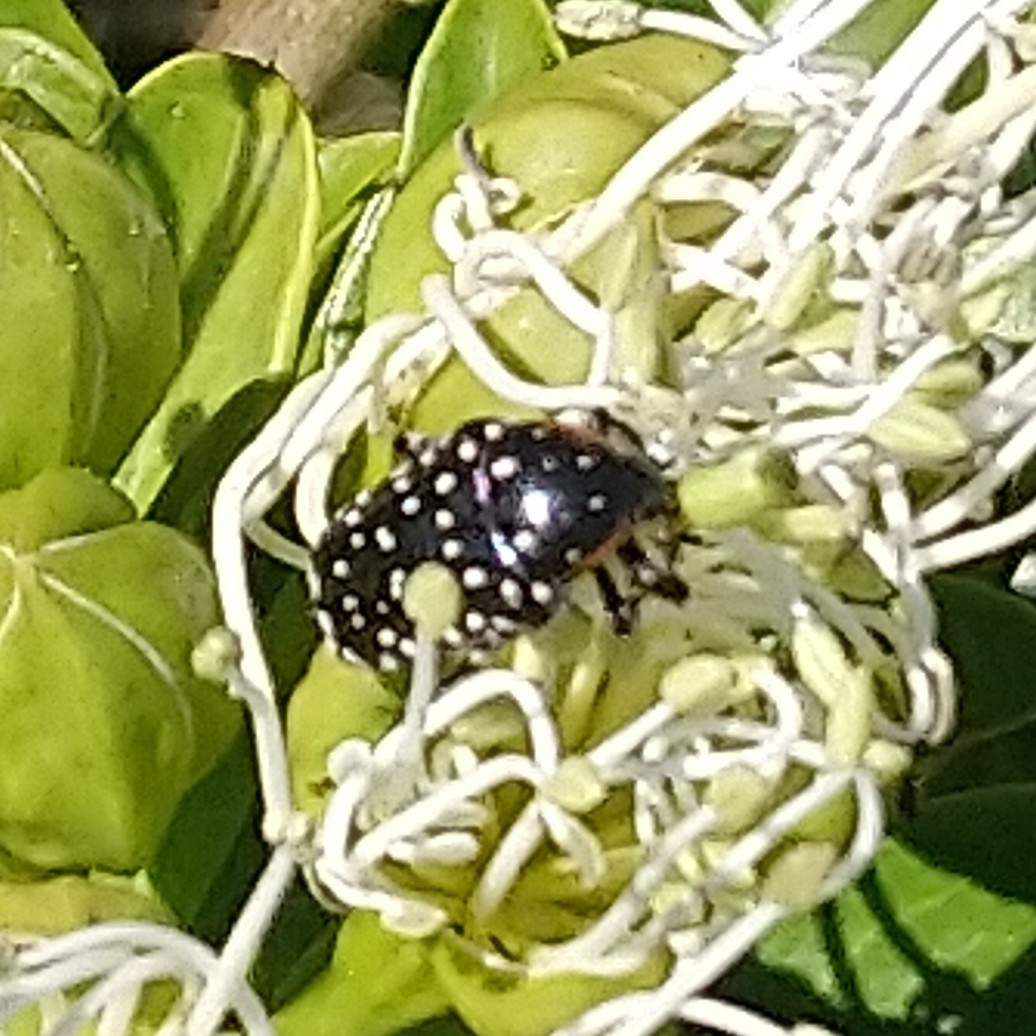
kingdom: Animalia
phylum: Arthropoda
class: Insecta
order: Coleoptera
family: Scarabaeidae
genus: Oxythyrea
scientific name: Oxythyrea
